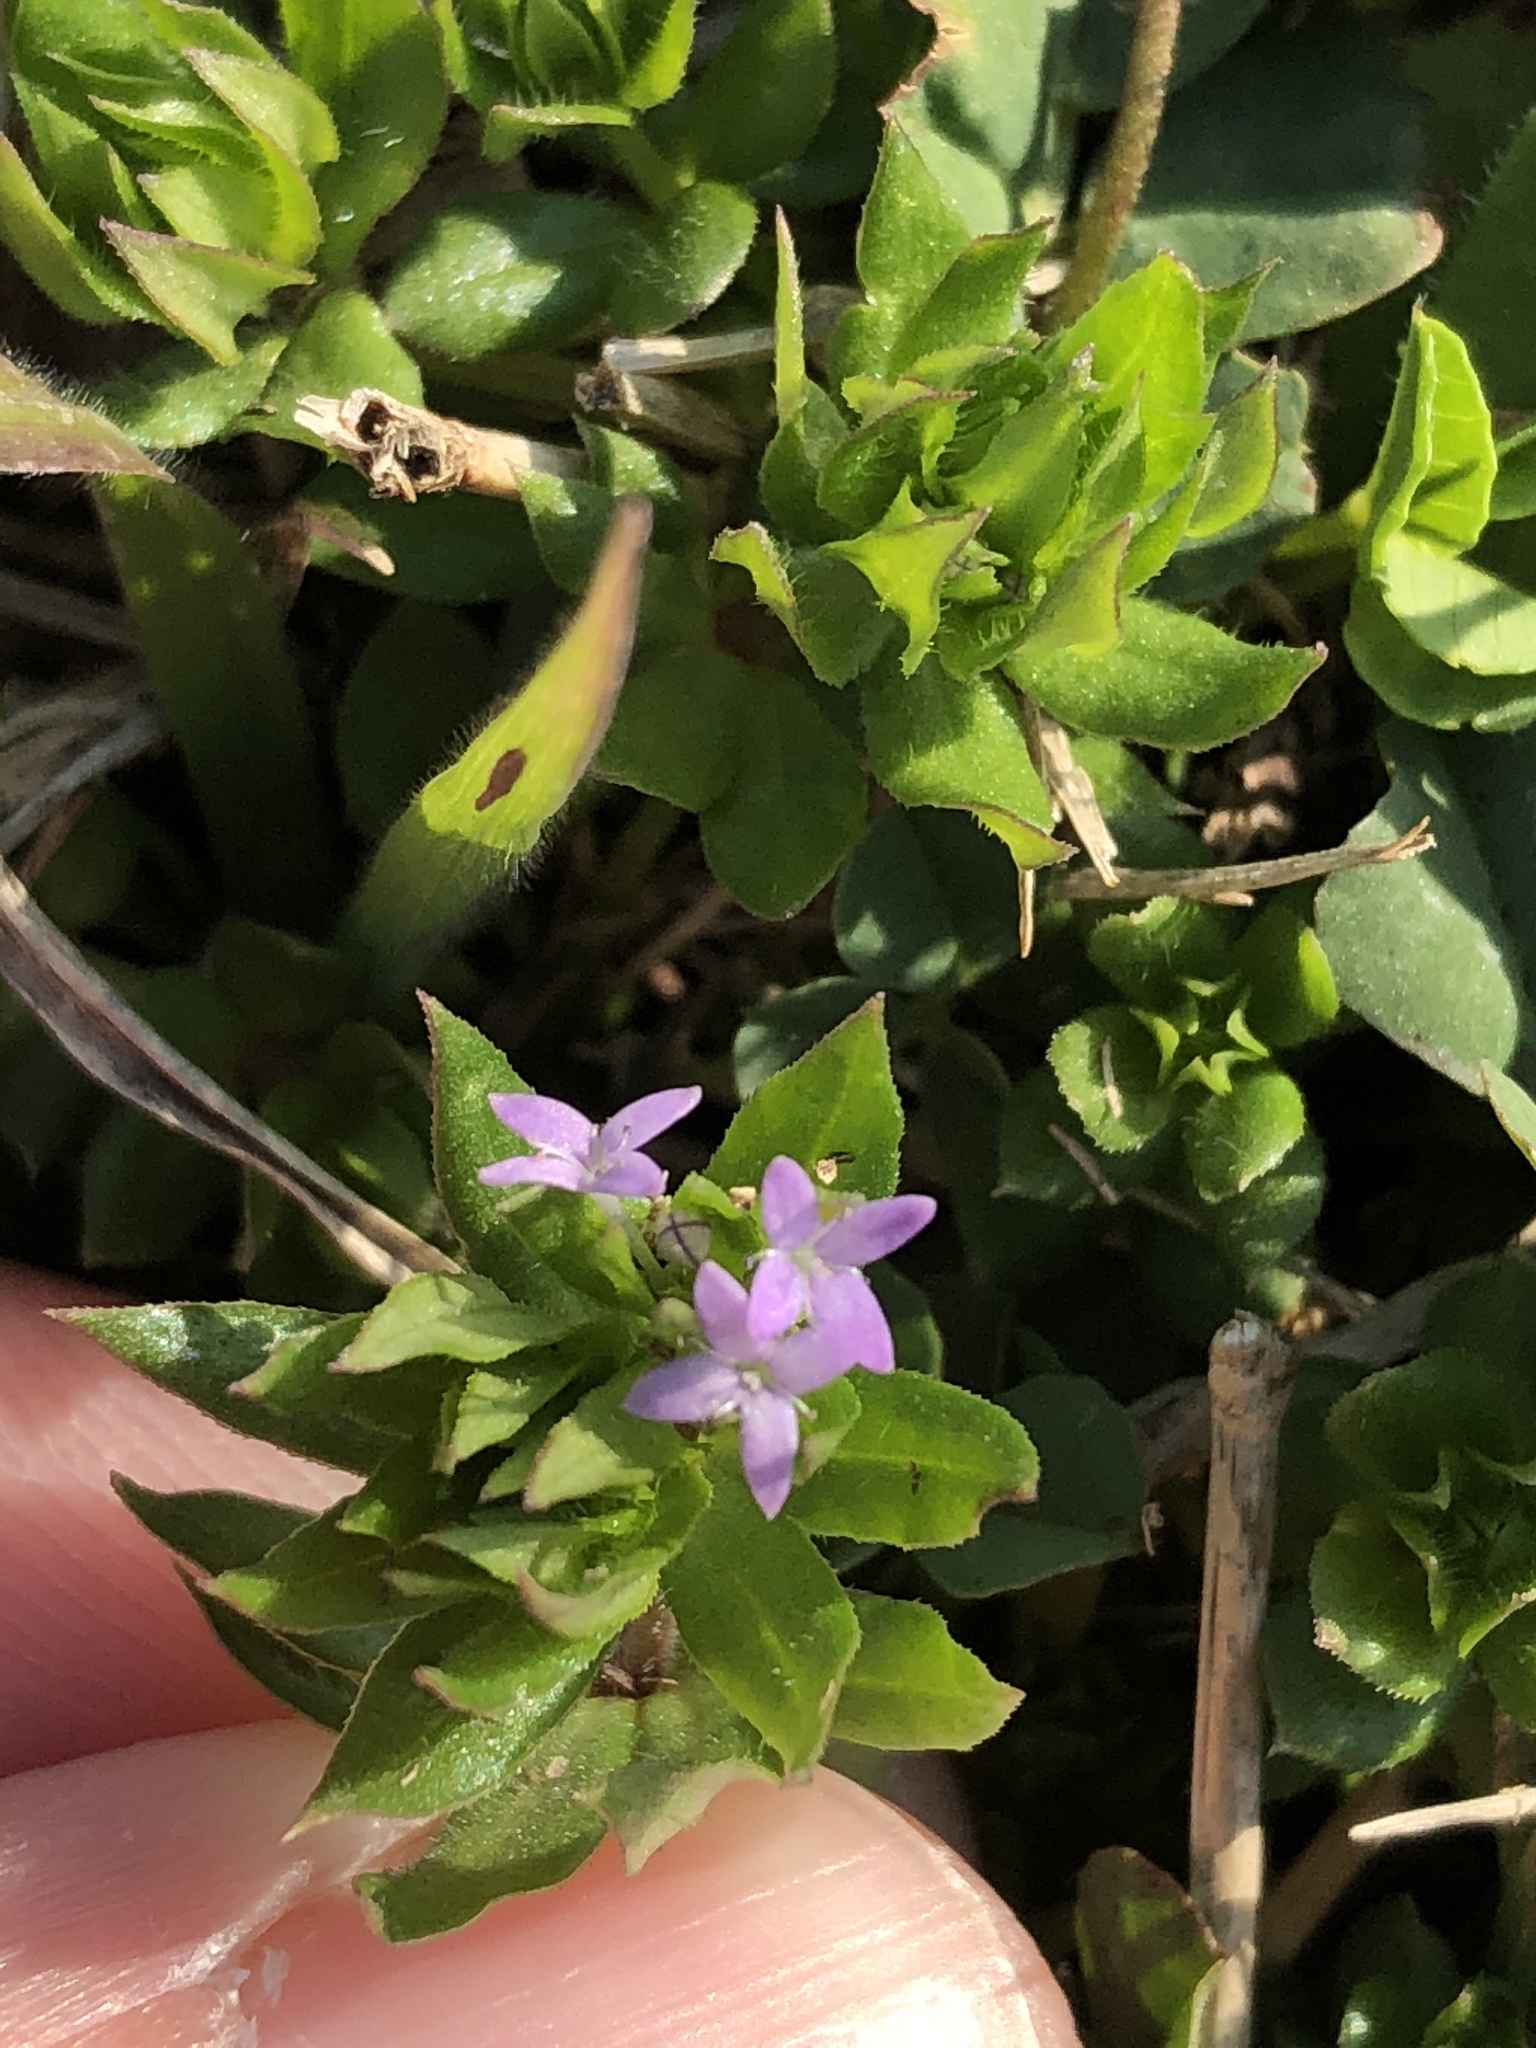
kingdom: Plantae
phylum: Tracheophyta
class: Magnoliopsida
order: Gentianales
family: Rubiaceae
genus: Sherardia
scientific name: Sherardia arvensis
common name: Field madder
